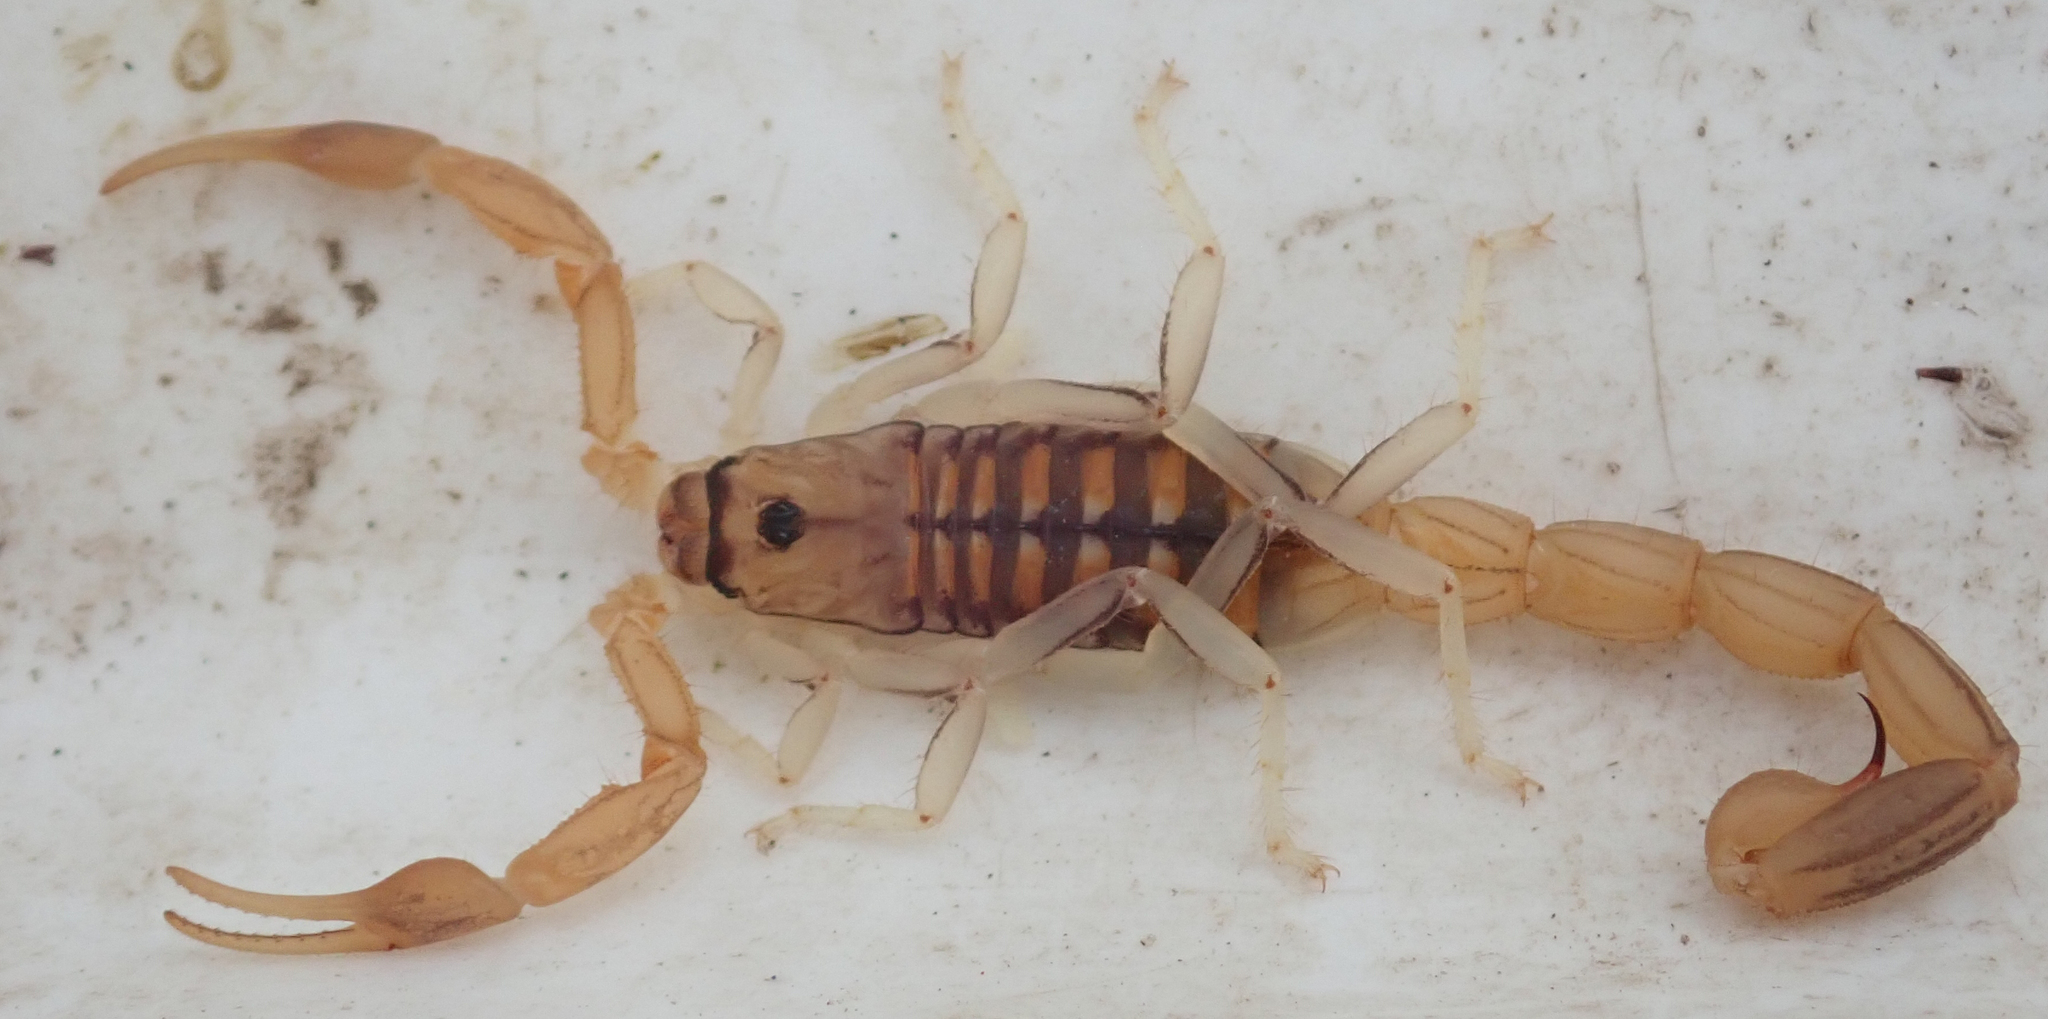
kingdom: Animalia
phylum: Arthropoda
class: Arachnida
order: Scorpiones
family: Buthidae
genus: Uroplectes
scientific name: Uroplectes planimanus
